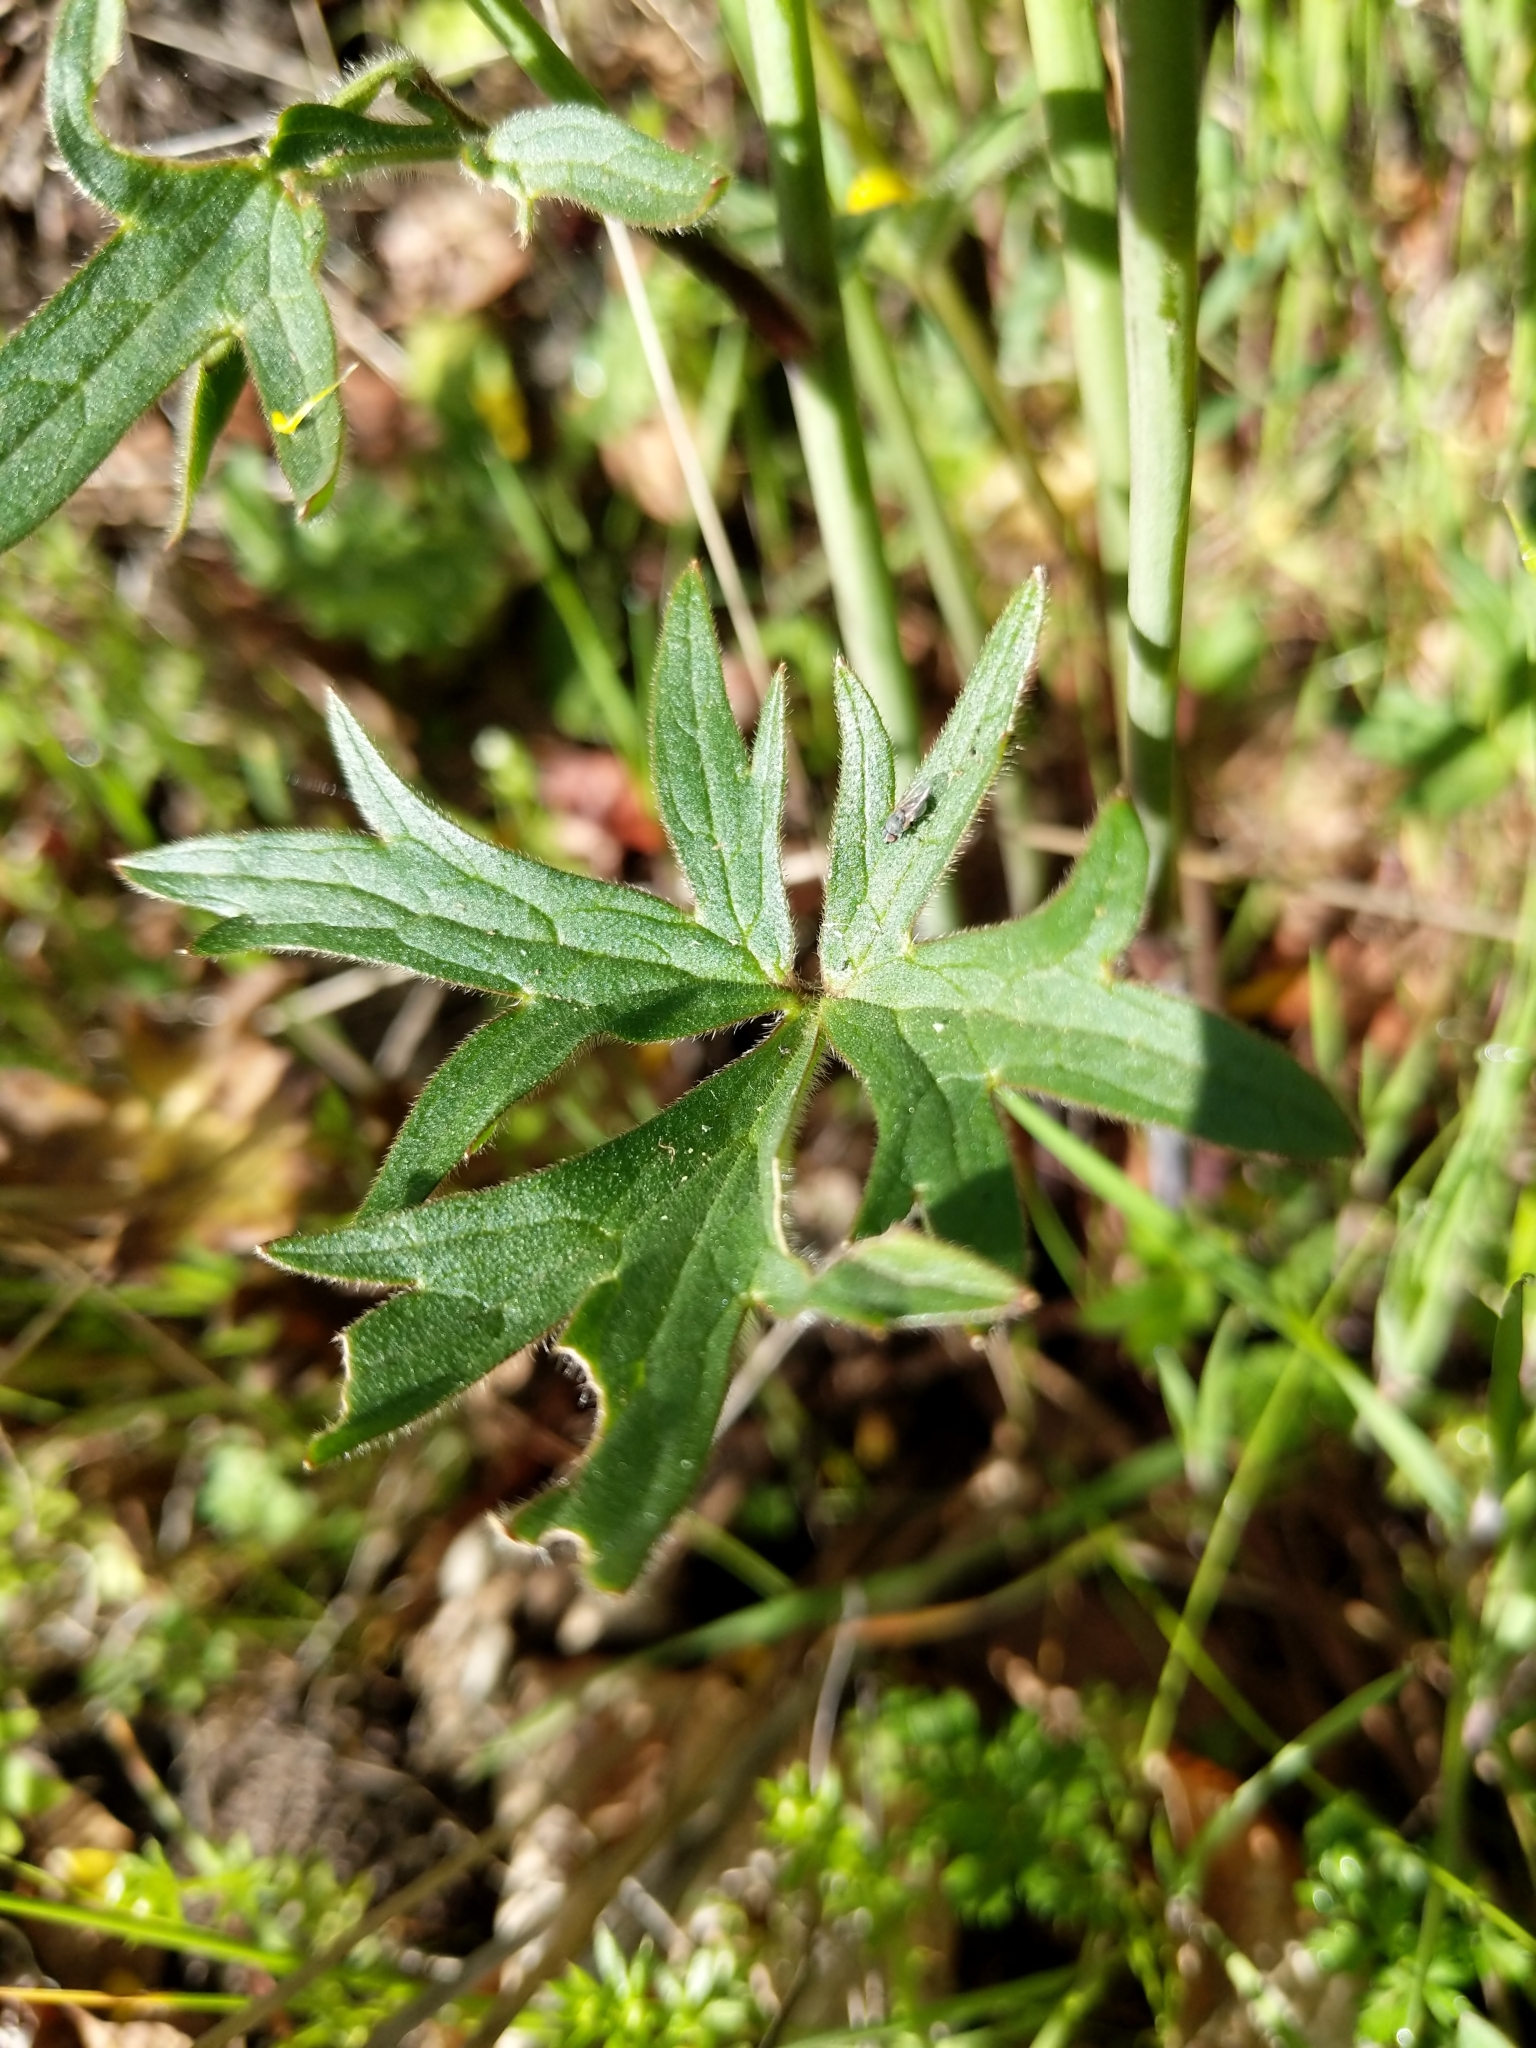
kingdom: Plantae
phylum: Tracheophyta
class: Magnoliopsida
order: Ranunculales
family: Ranunculaceae
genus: Ranunculus
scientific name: Ranunculus californicus
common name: California buttercup
